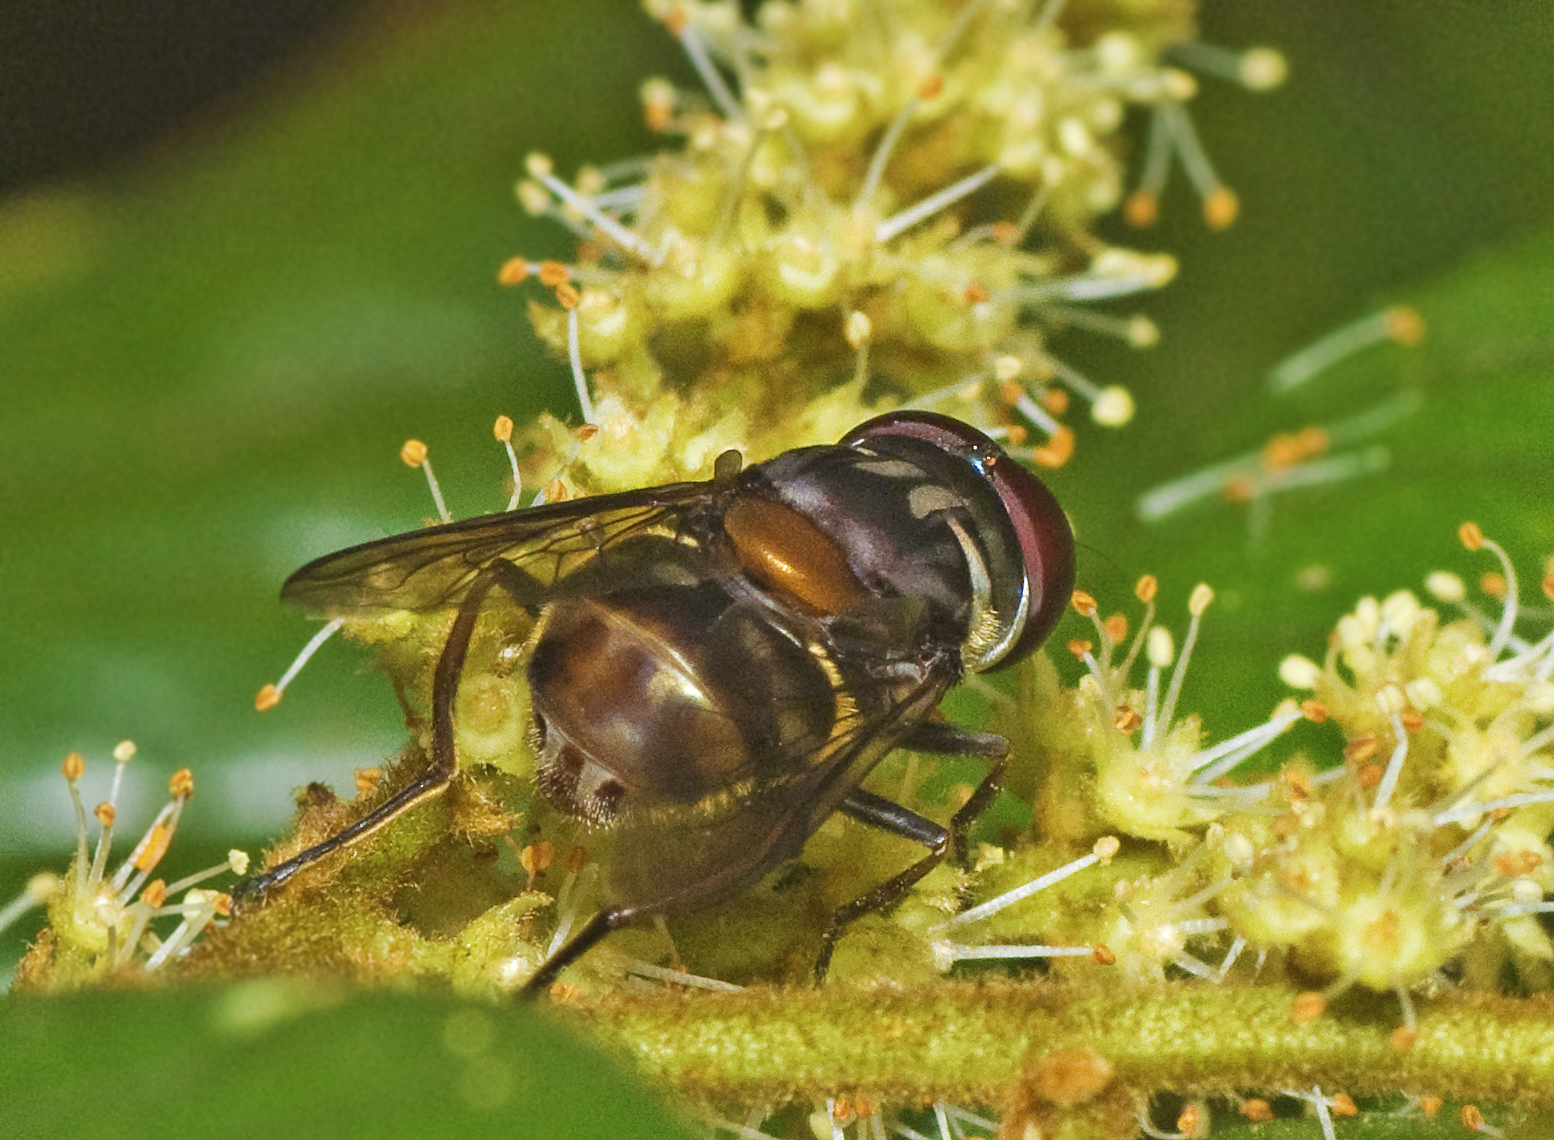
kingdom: Animalia
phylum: Arthropoda
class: Insecta
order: Diptera
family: Syrphidae
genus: Austalis
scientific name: Austalis resoluta
